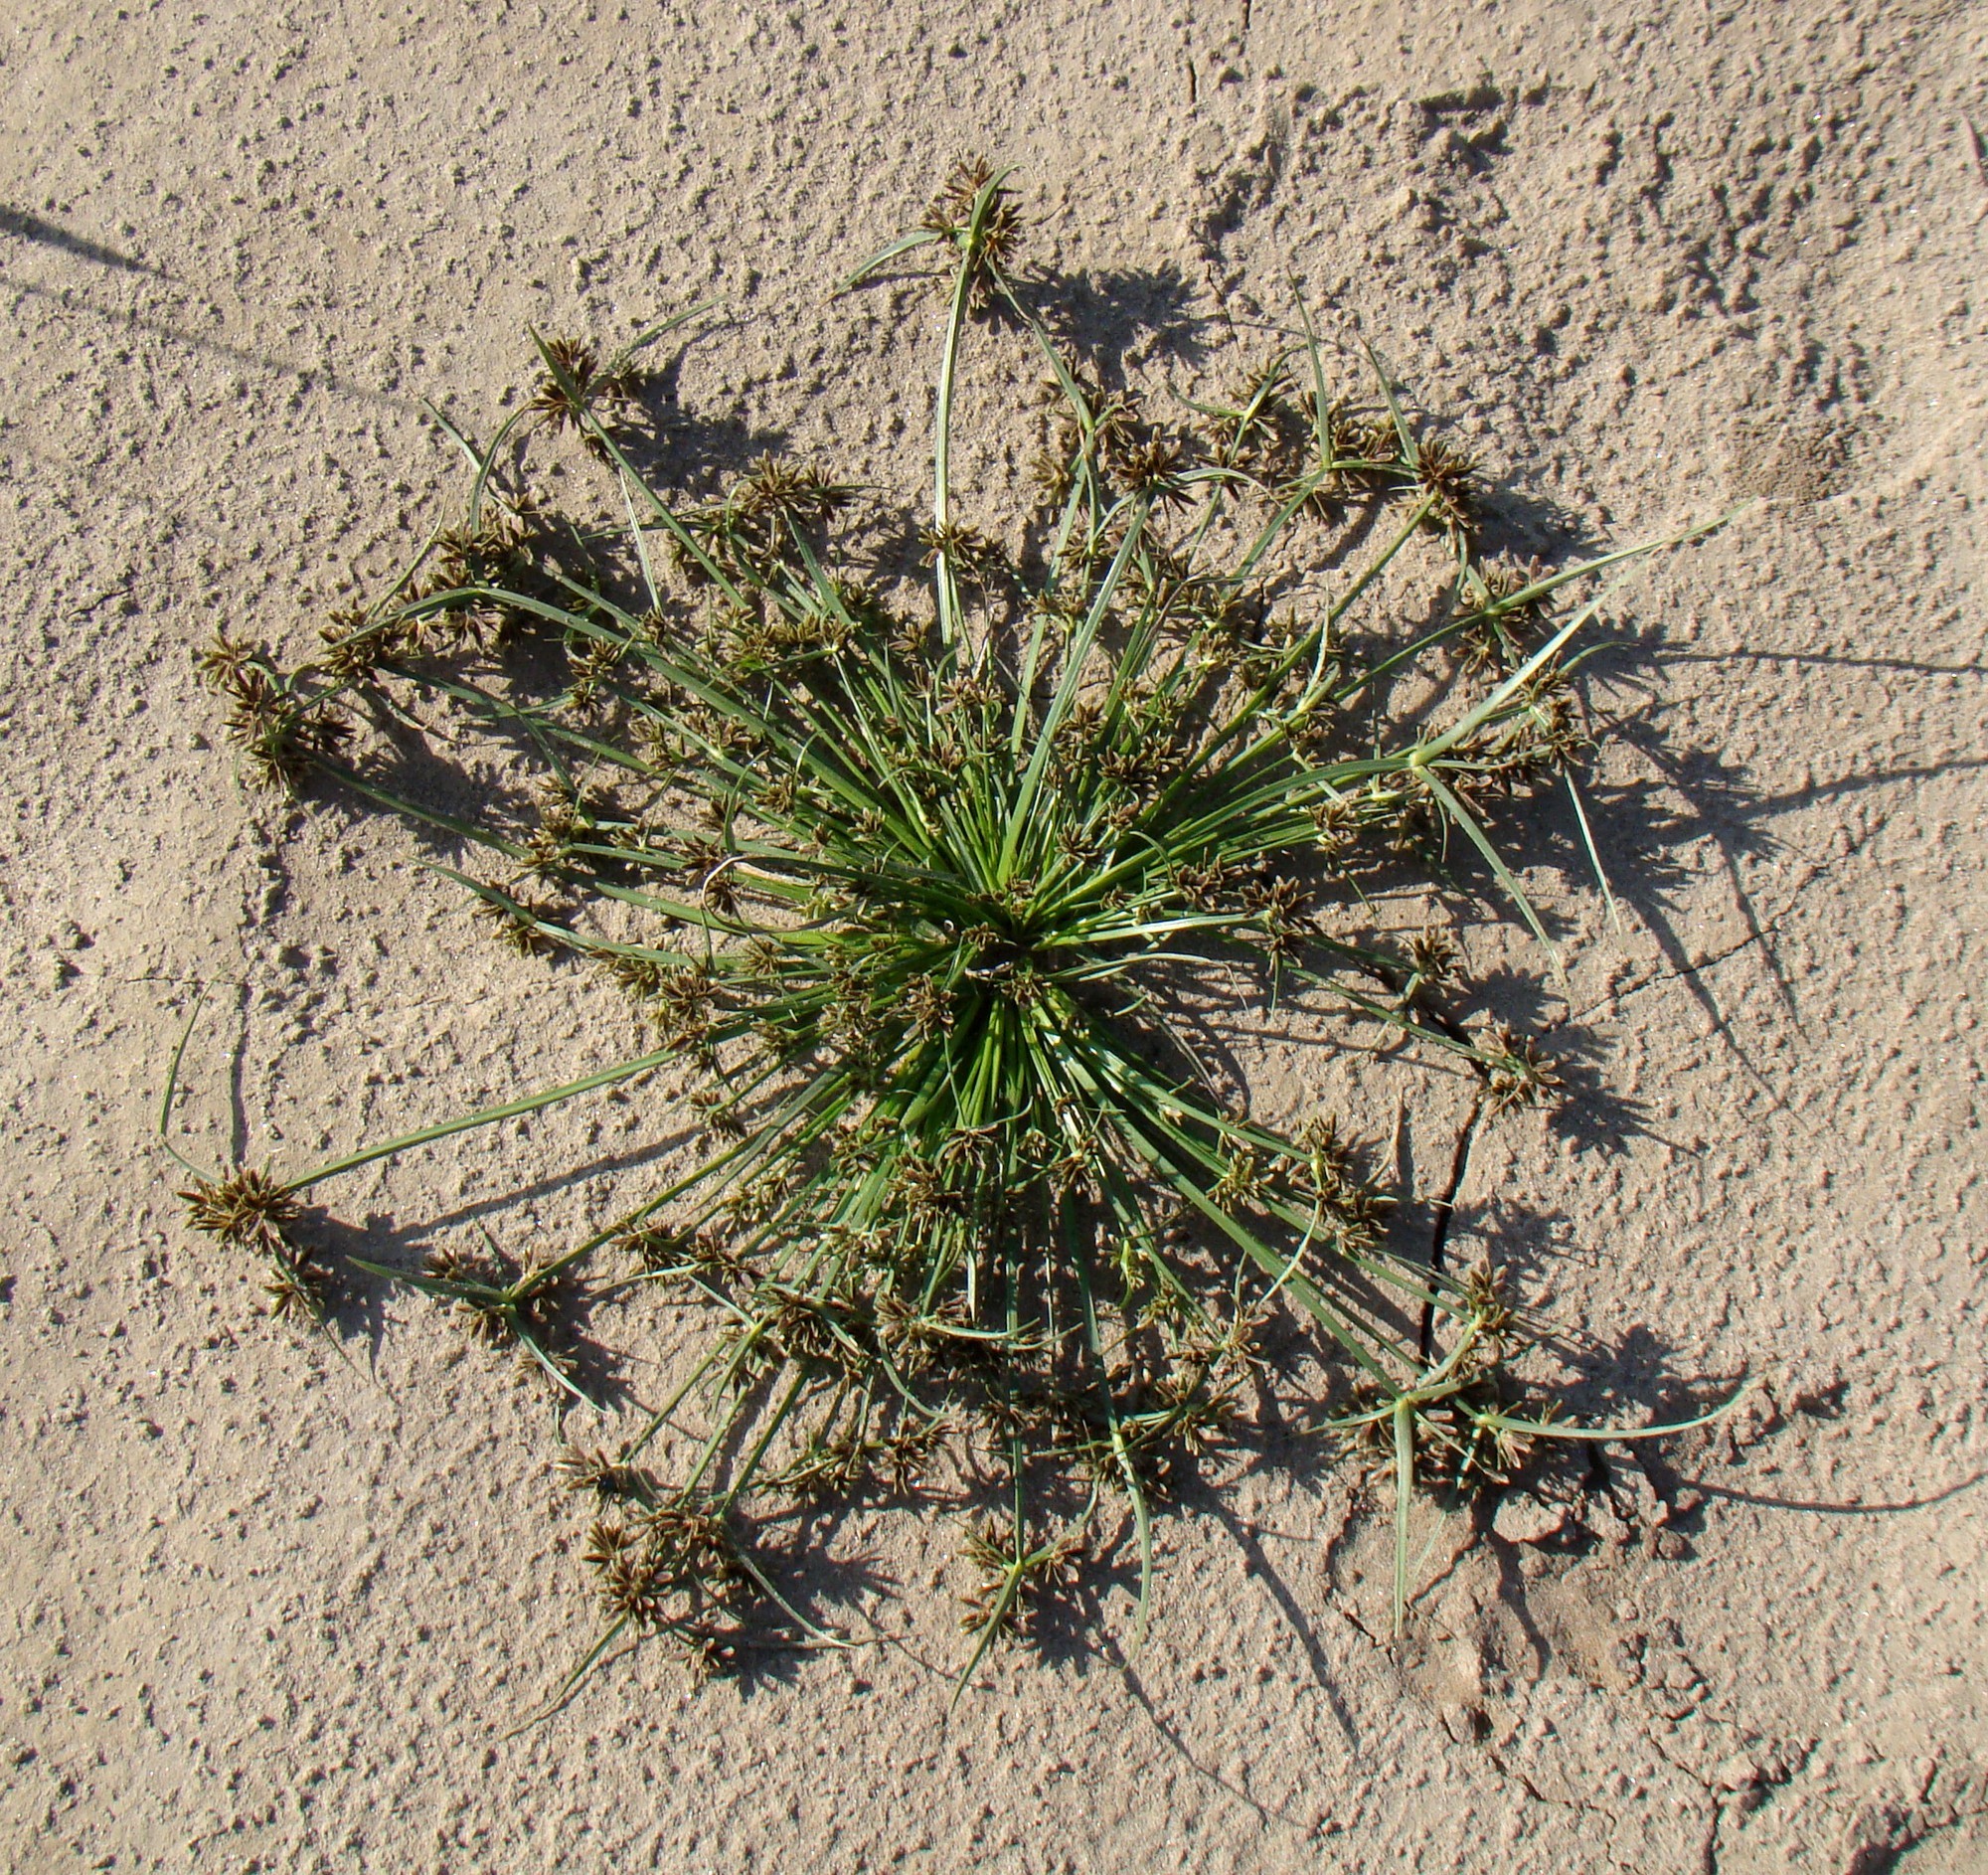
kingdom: Plantae
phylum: Tracheophyta
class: Liliopsida
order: Poales
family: Cyperaceae
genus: Cyperus
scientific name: Cyperus fuscus
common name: Brown galingale
